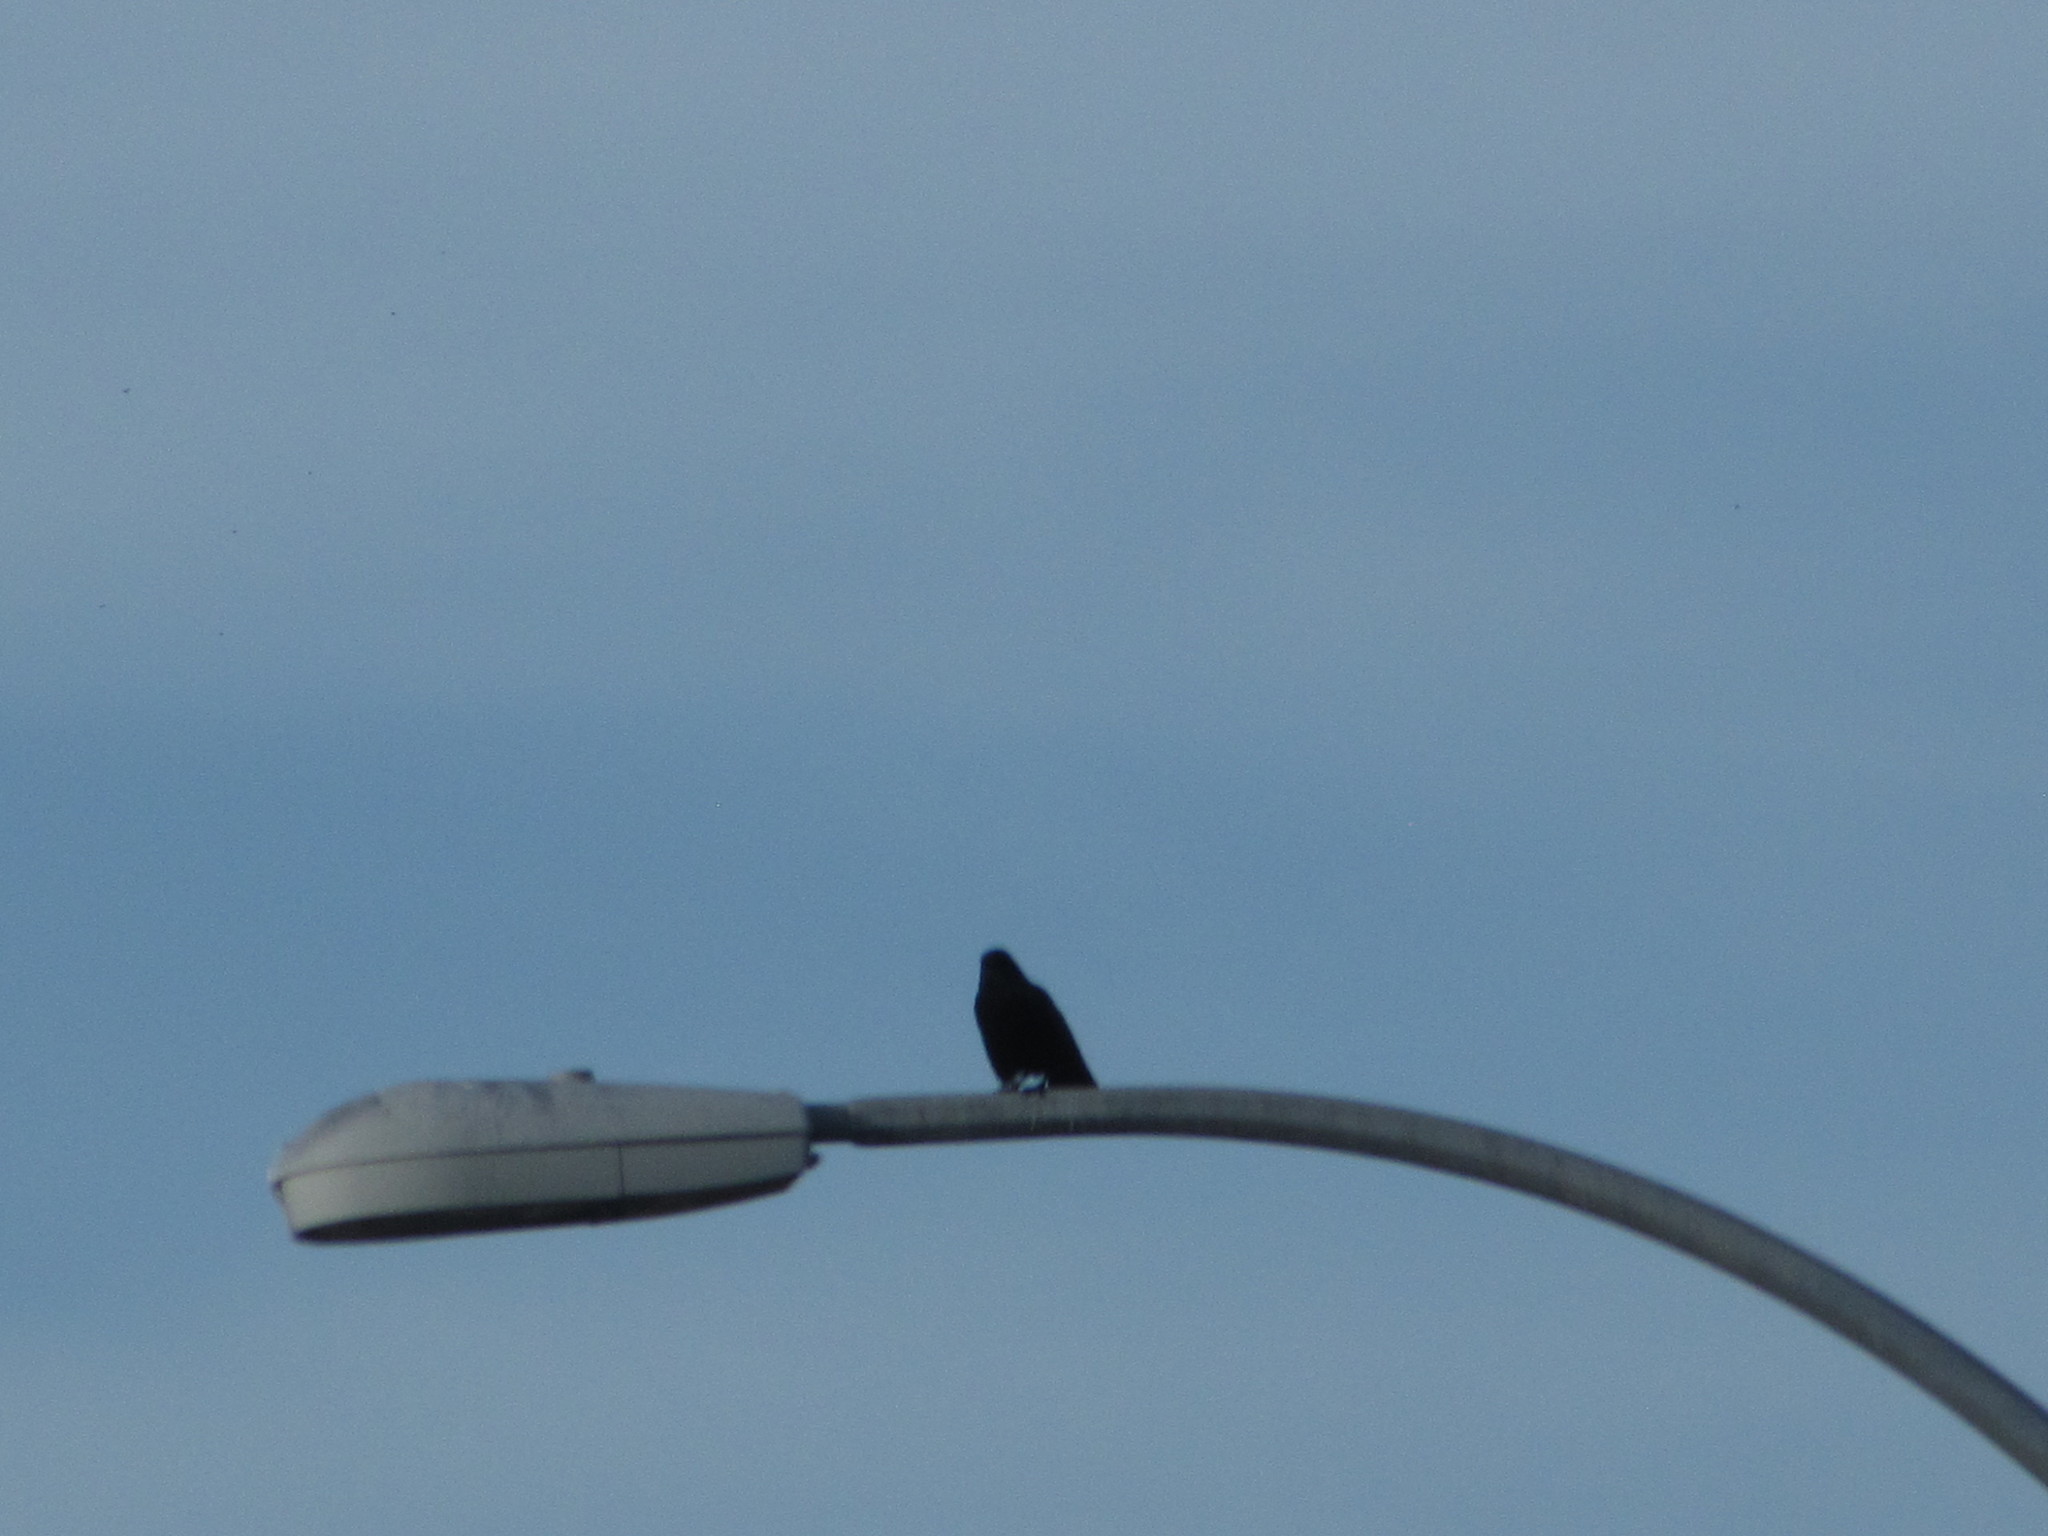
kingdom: Animalia
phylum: Chordata
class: Aves
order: Passeriformes
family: Corvidae
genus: Corvus
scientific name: Corvus brachyrhynchos
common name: American crow
